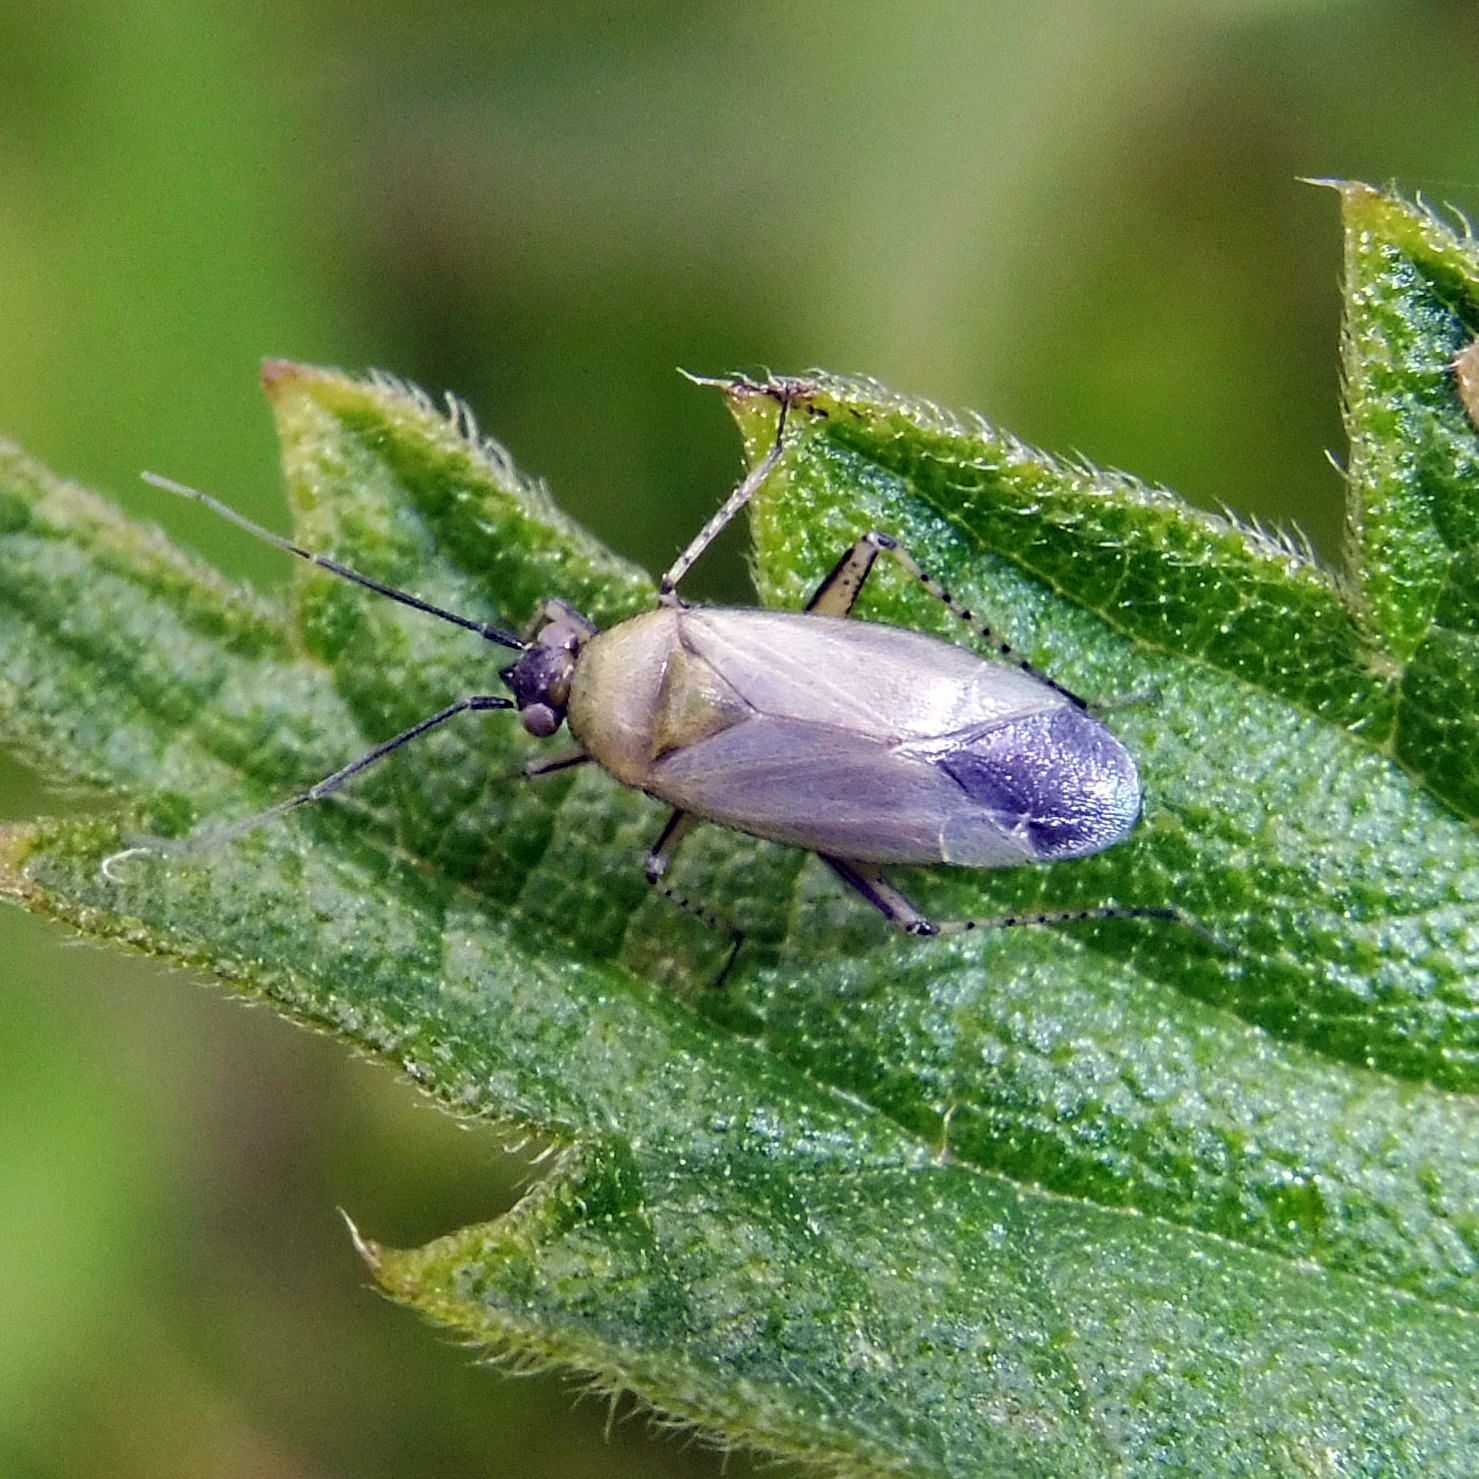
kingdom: Animalia
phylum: Arthropoda
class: Insecta
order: Hemiptera
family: Miridae
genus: Plagiognathus
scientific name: Plagiognathus arbustorum
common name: Plant bug
